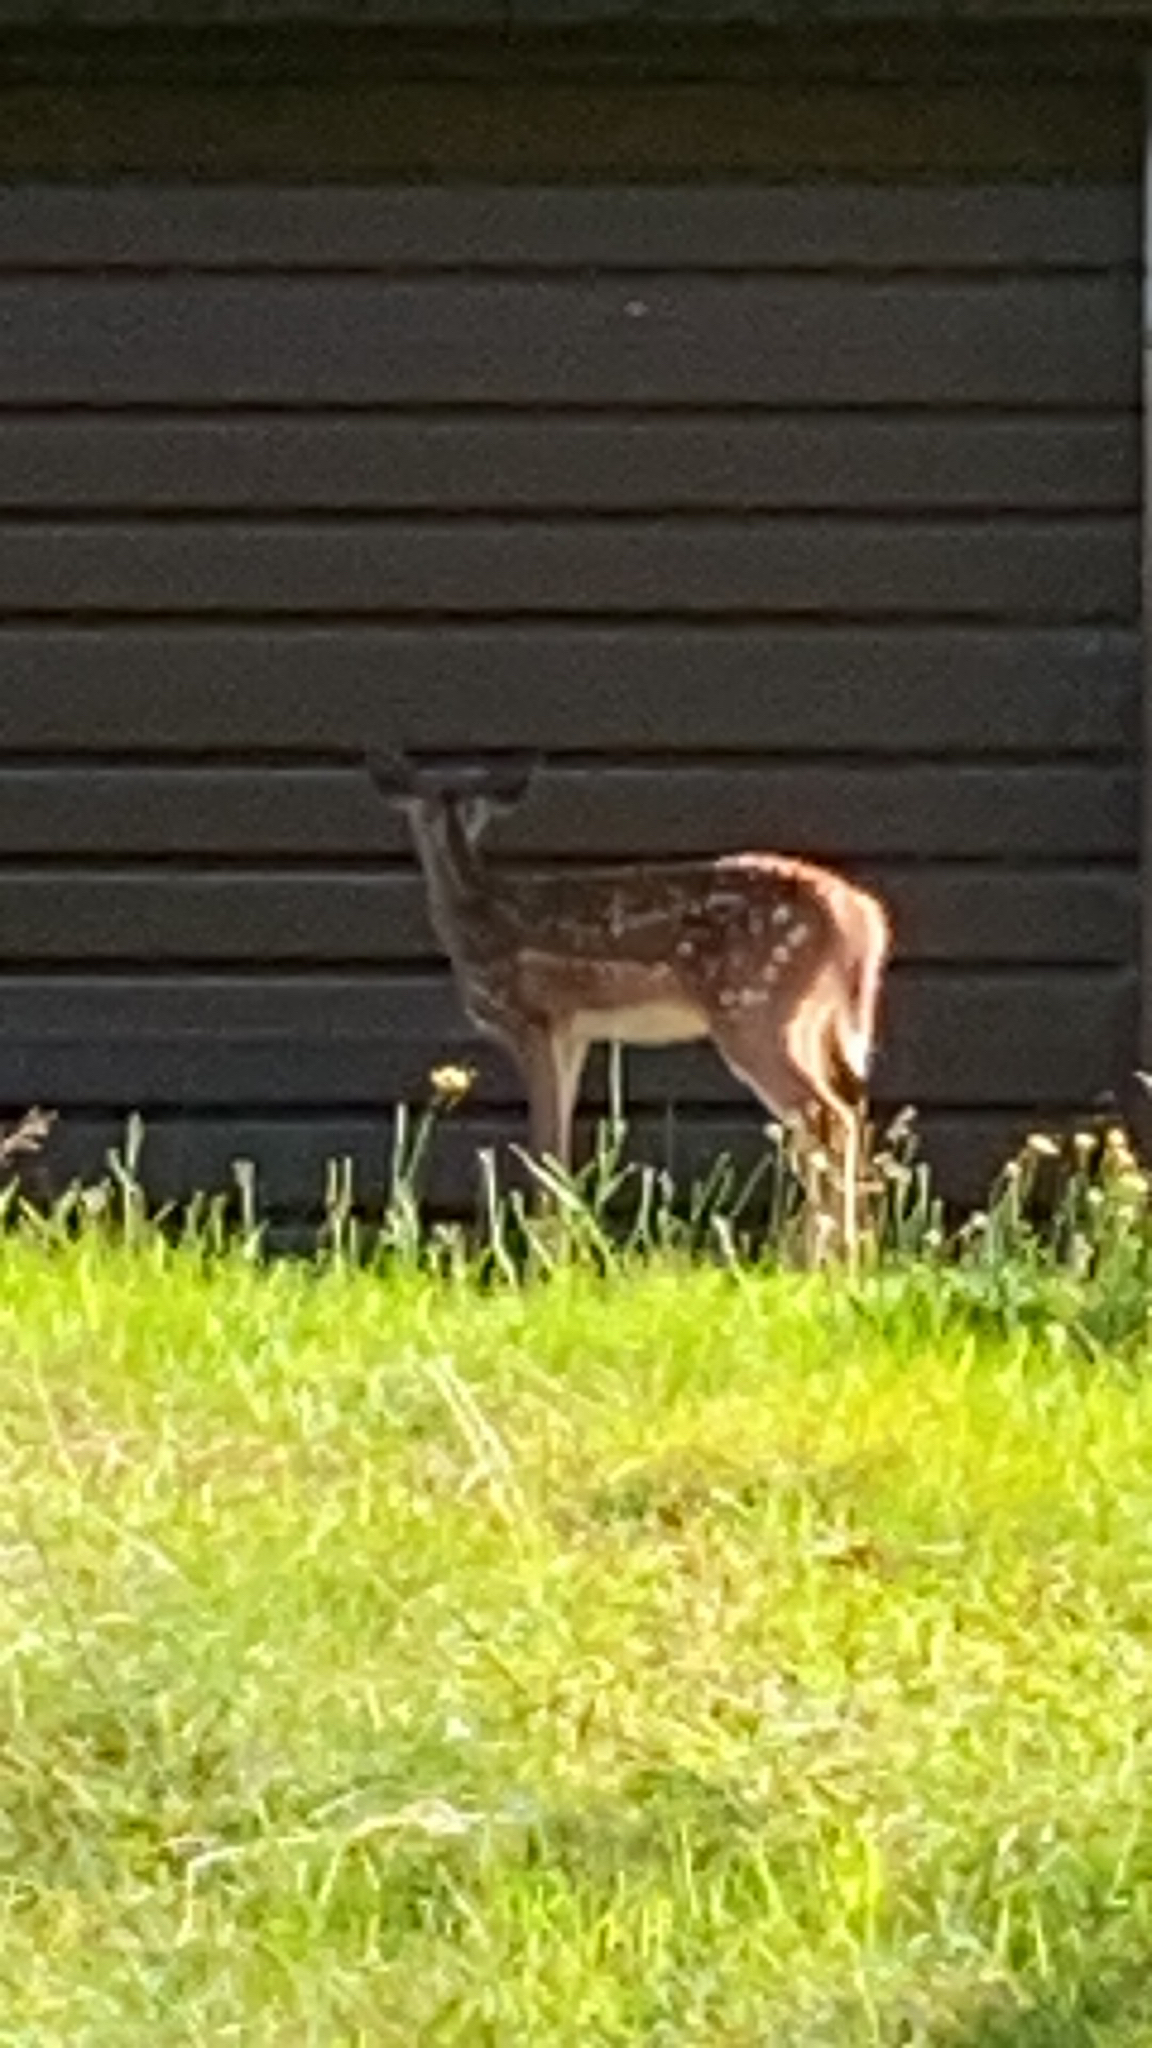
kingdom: Animalia
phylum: Chordata
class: Mammalia
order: Artiodactyla
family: Cervidae
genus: Odocoileus
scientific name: Odocoileus virginianus
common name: White-tailed deer
